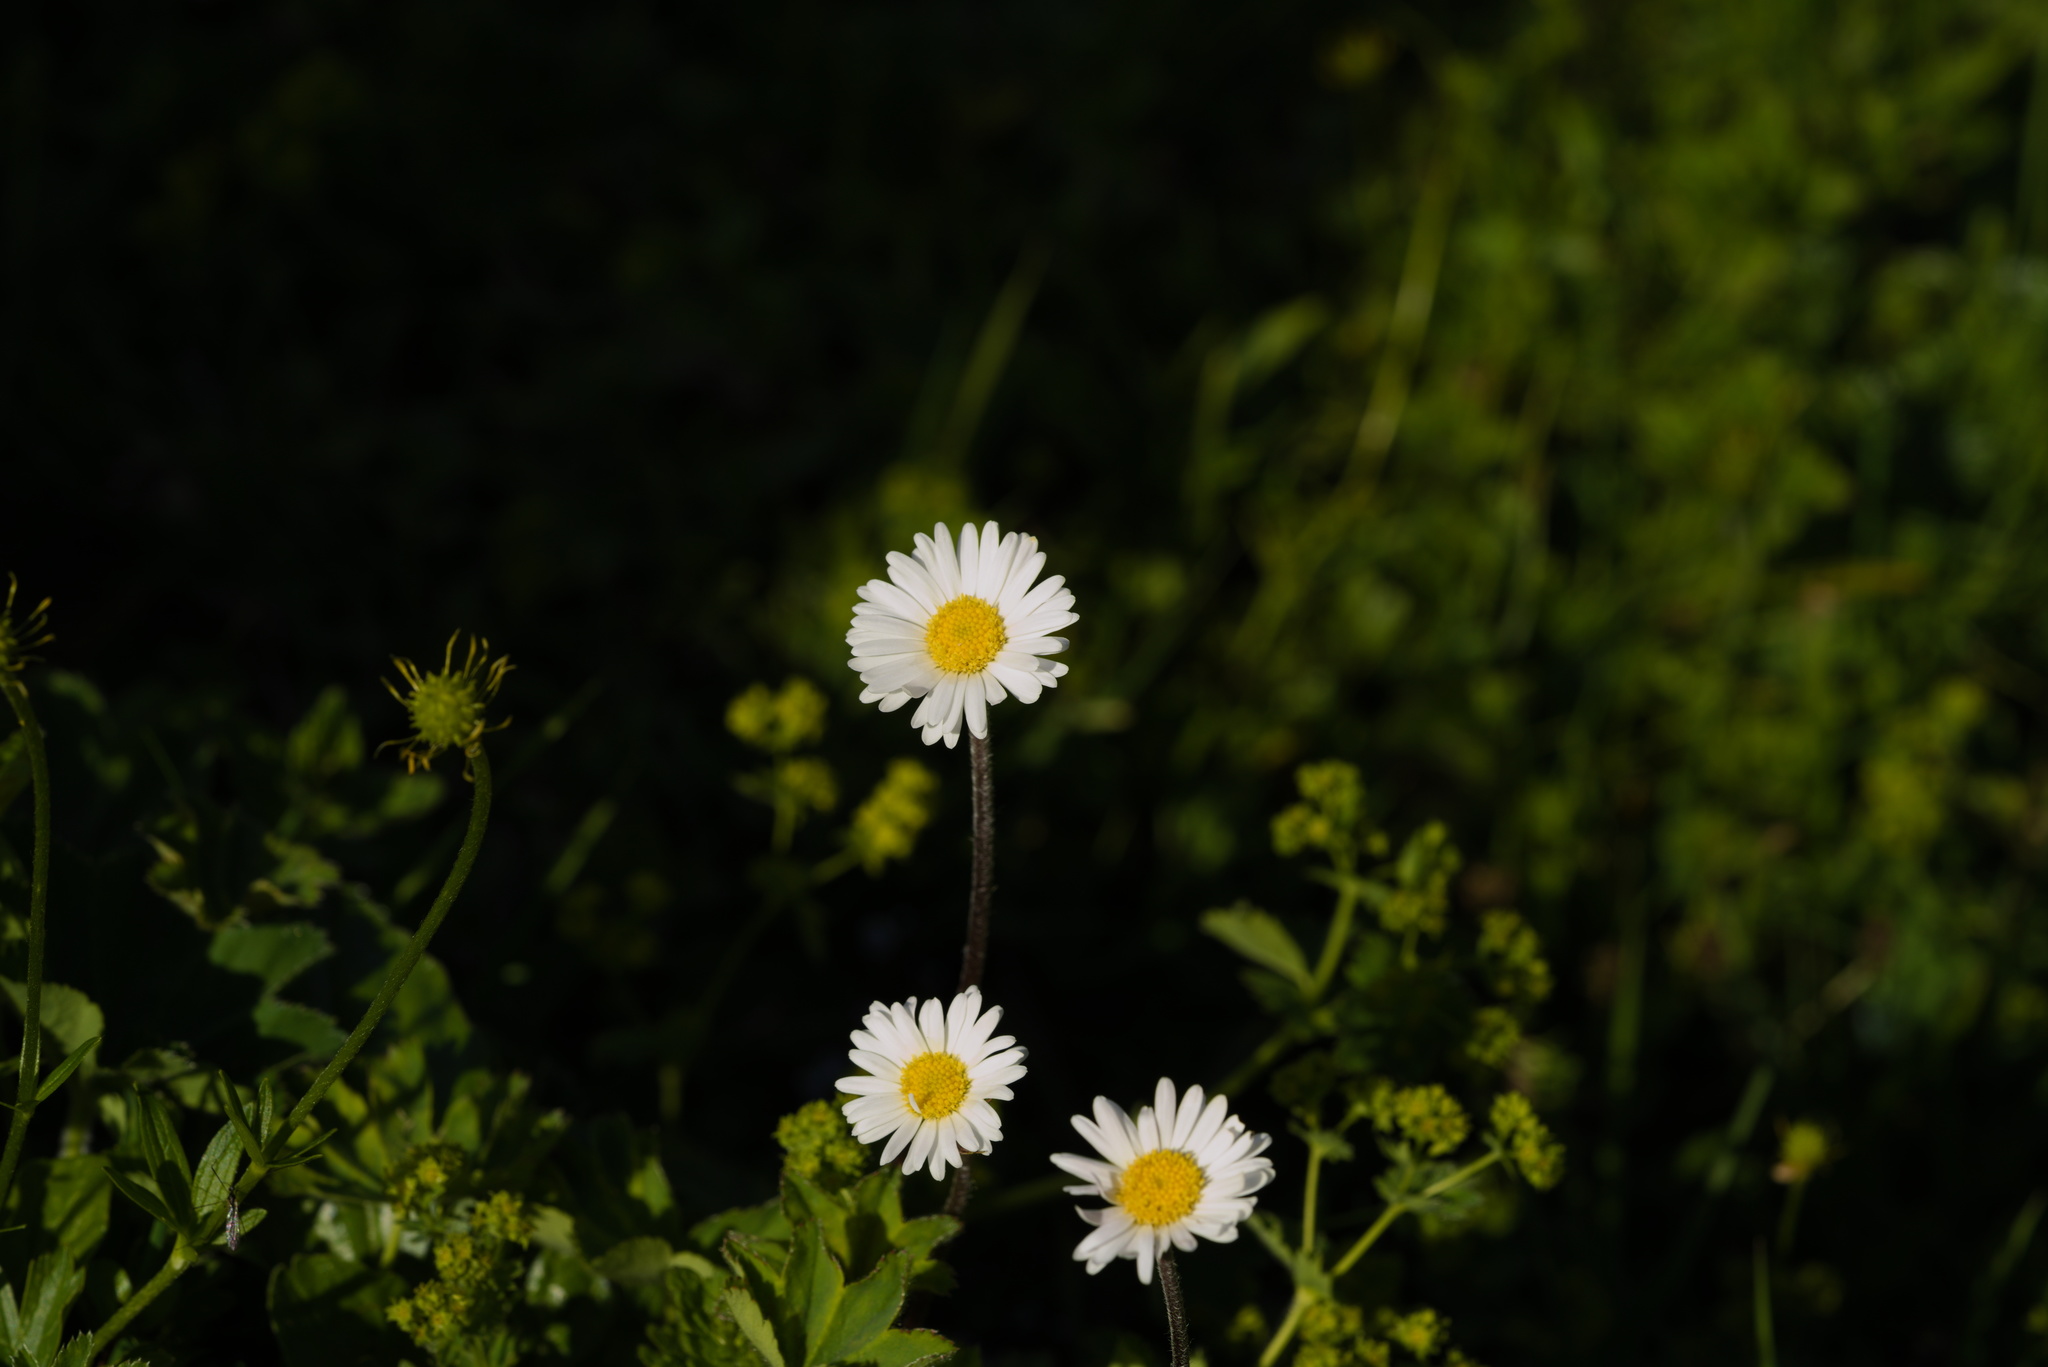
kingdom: Plantae
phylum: Tracheophyta
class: Magnoliopsida
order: Asterales
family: Asteraceae
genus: Bellis
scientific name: Bellis perennis
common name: Lawndaisy
